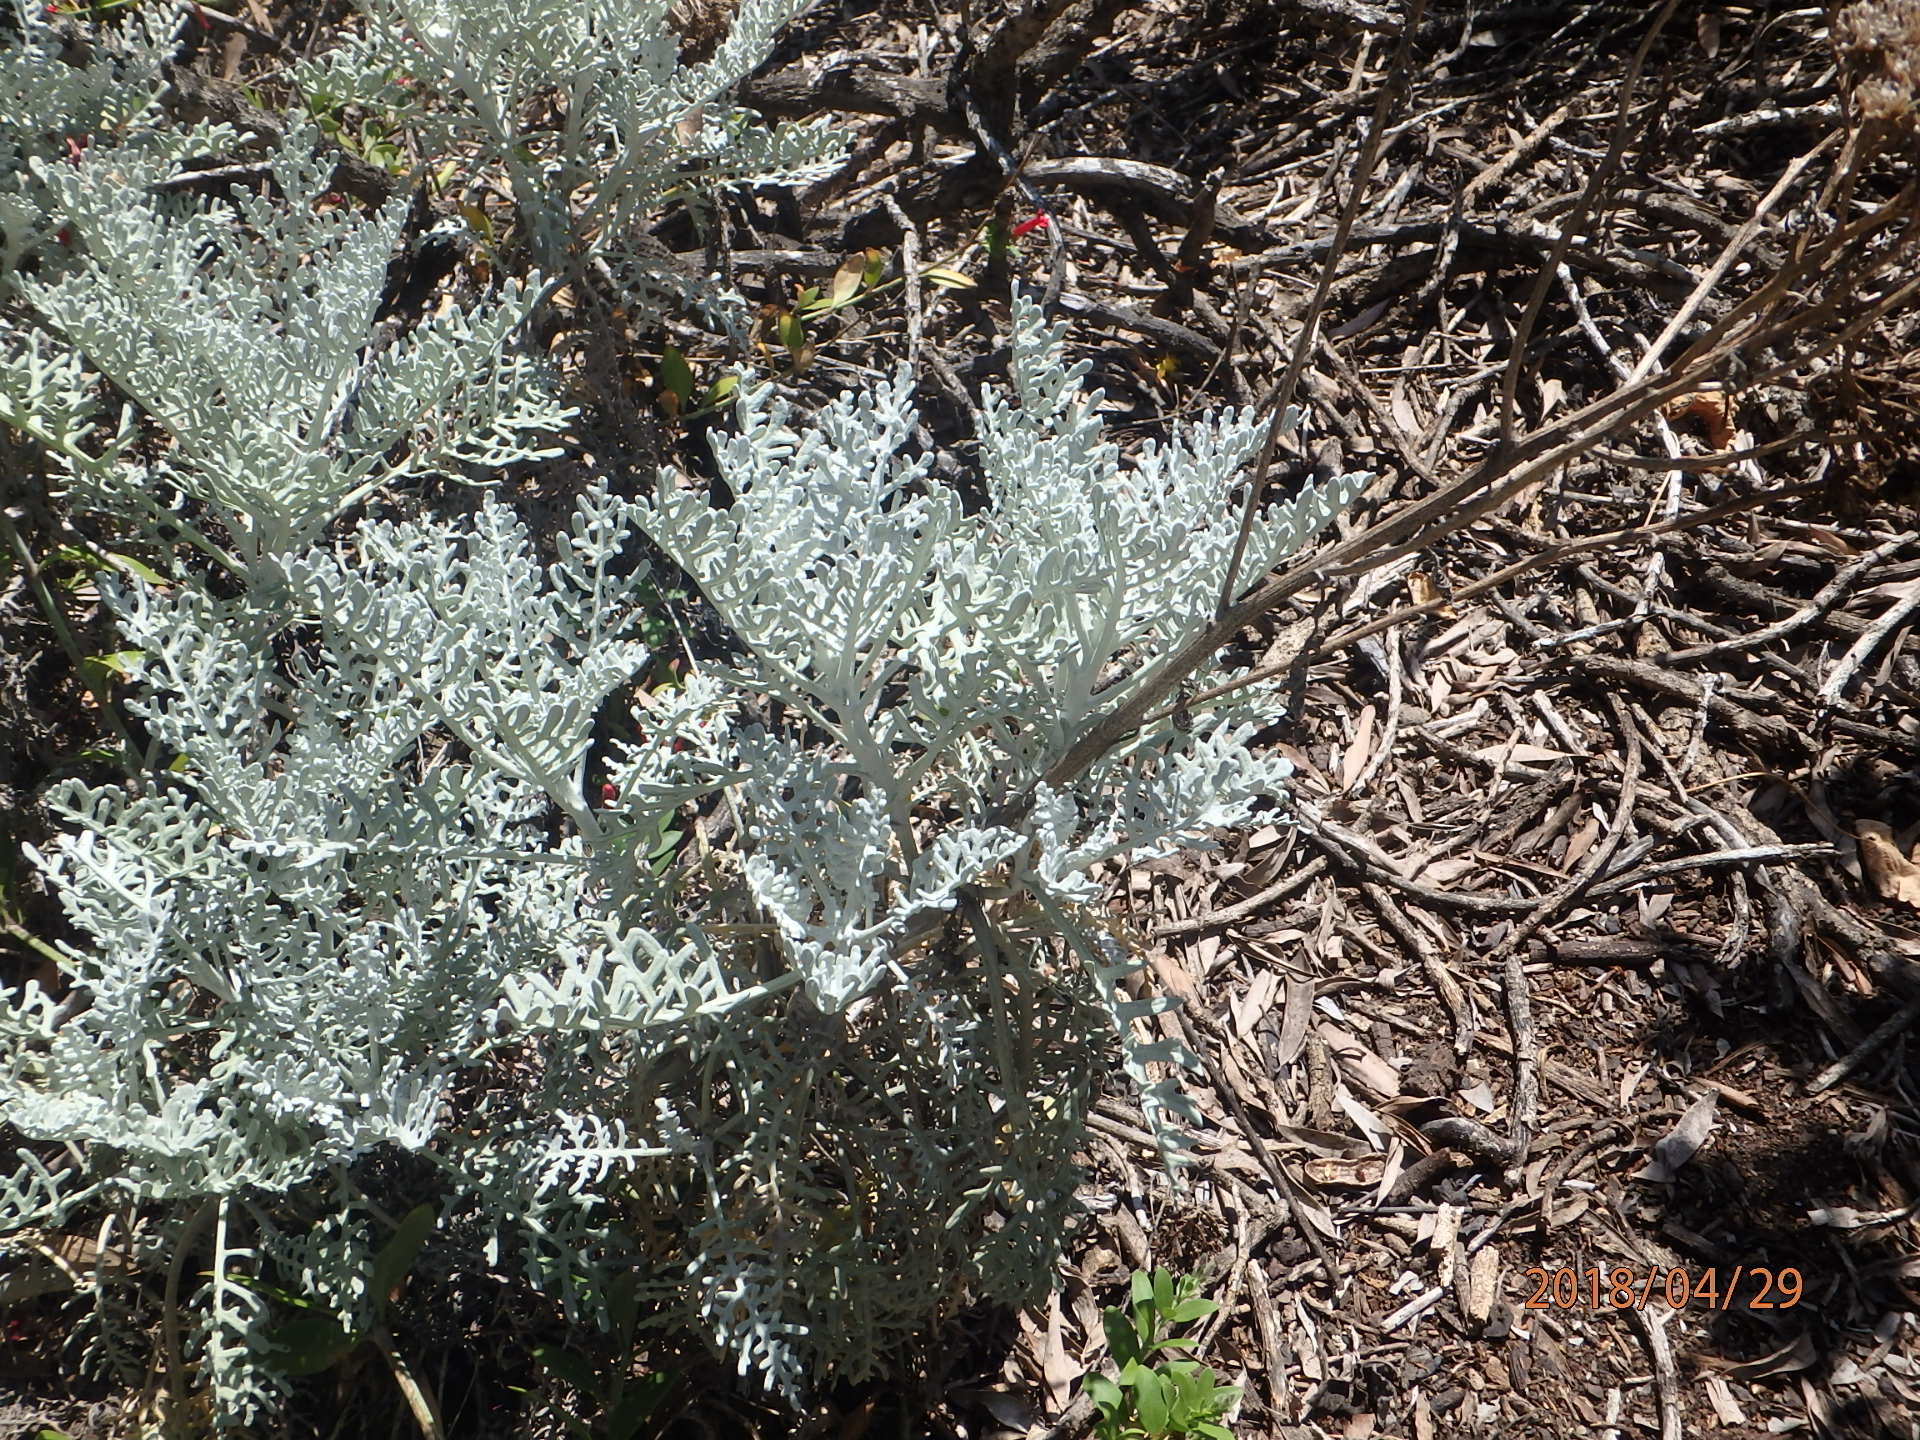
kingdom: Plantae
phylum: Tracheophyta
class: Magnoliopsida
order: Asterales
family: Asteraceae
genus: Constancea
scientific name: Constancea nevinii
